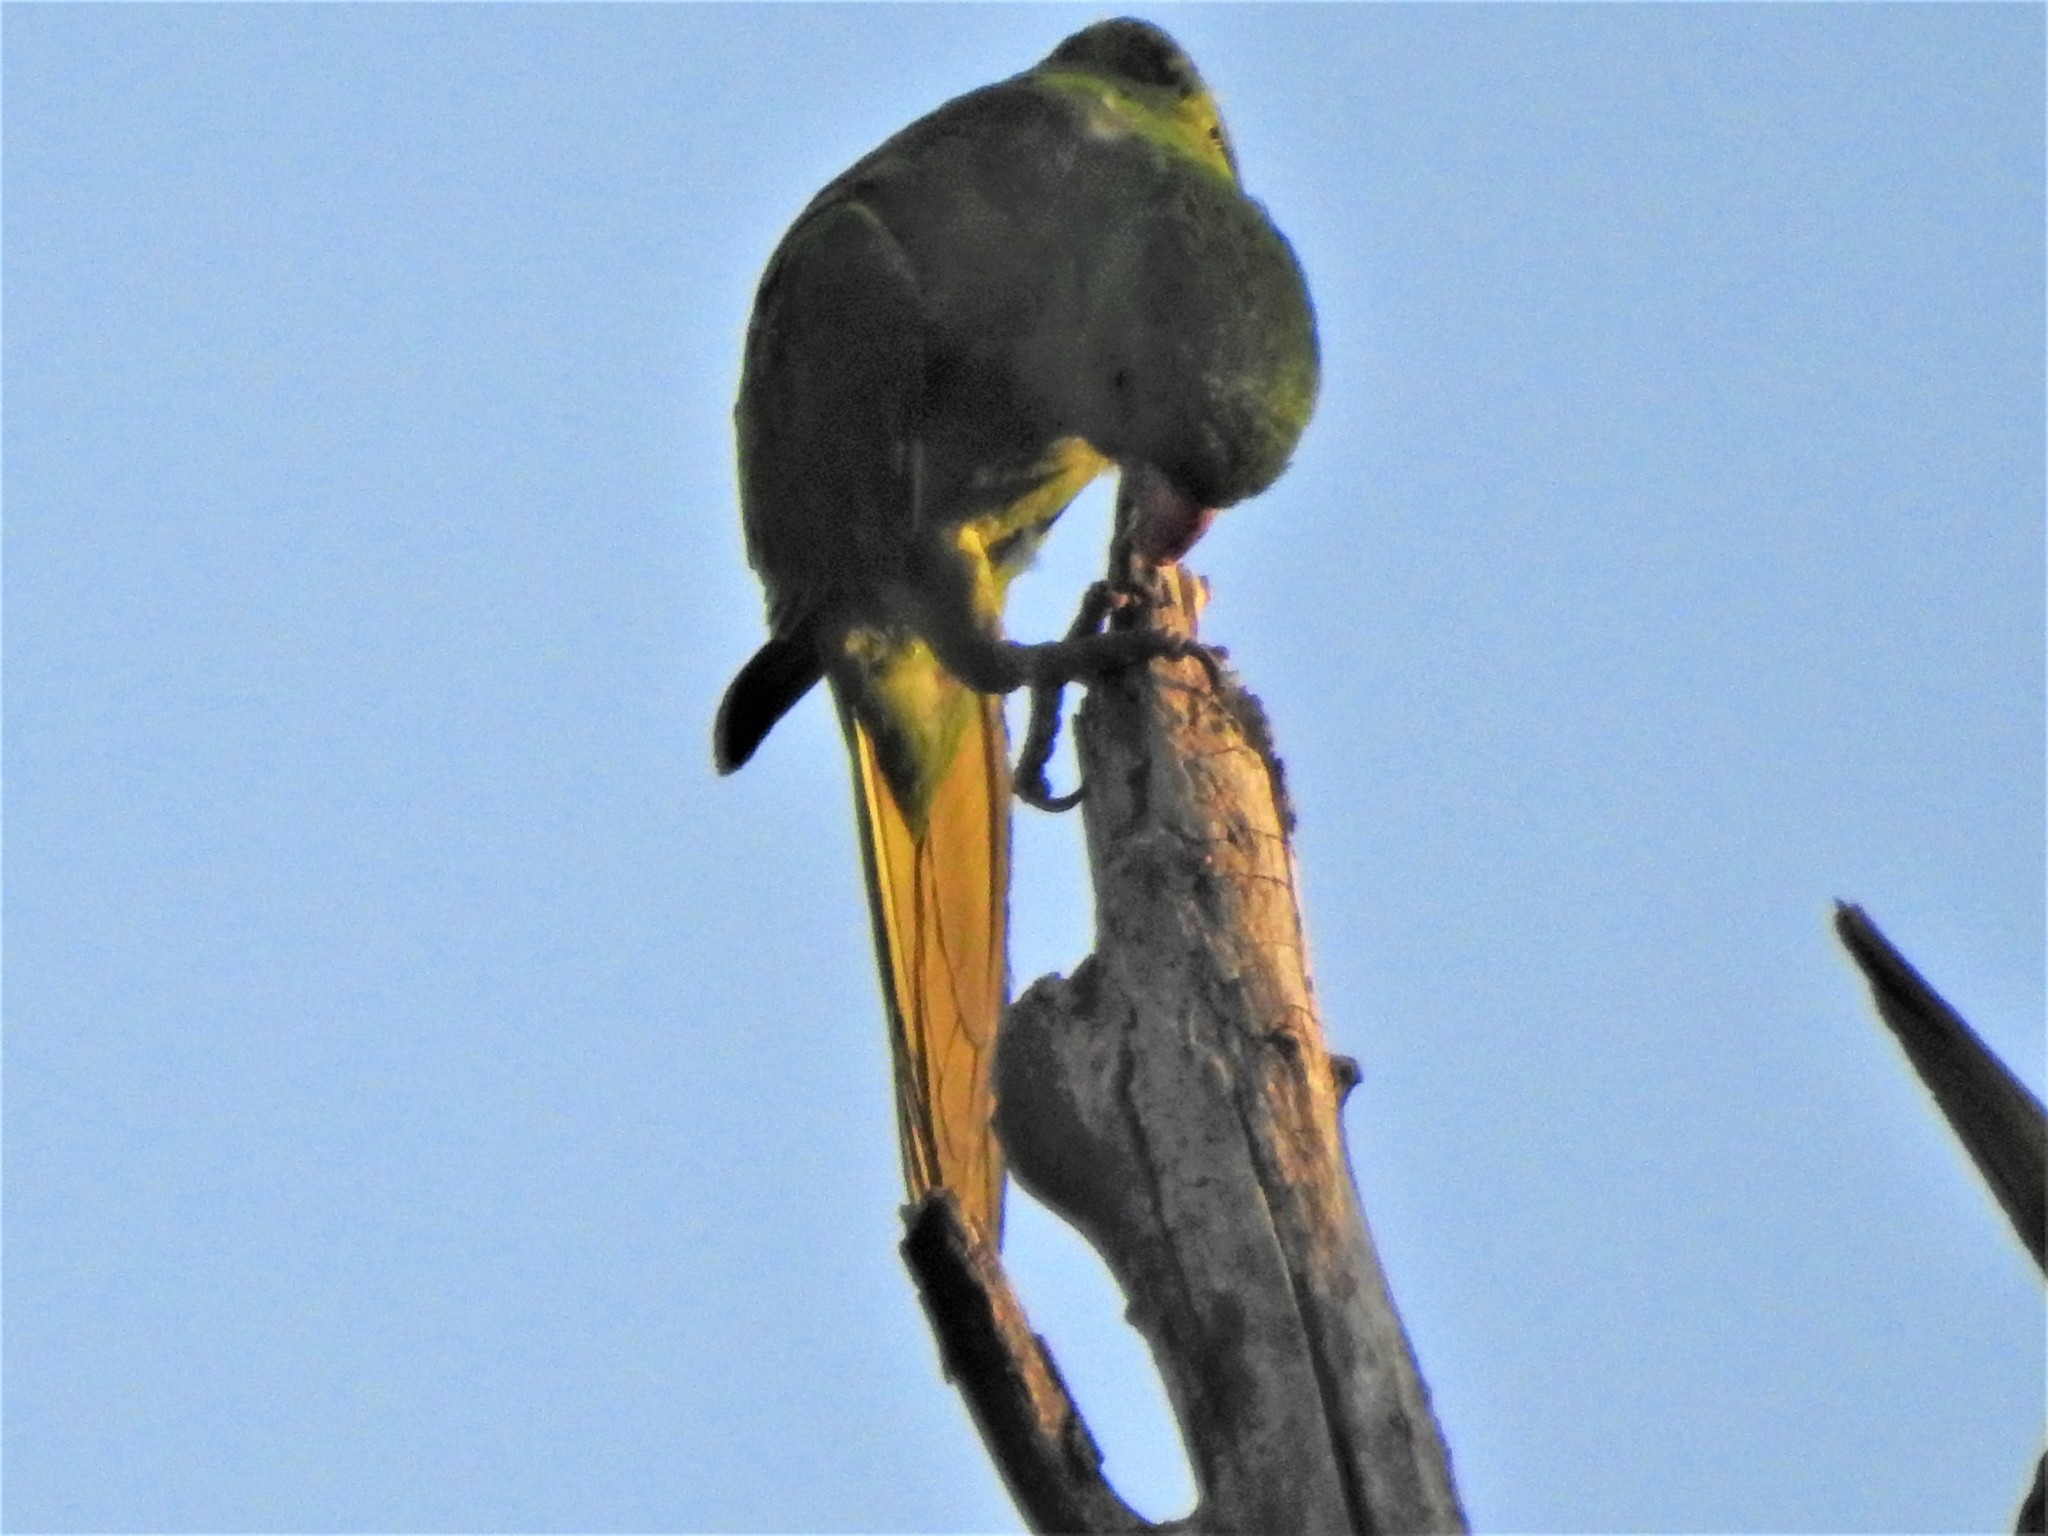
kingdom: Animalia
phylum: Chordata
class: Aves
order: Psittaciformes
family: Psittacidae
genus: Aratinga
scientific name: Aratinga holochlora
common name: Green parakeet
